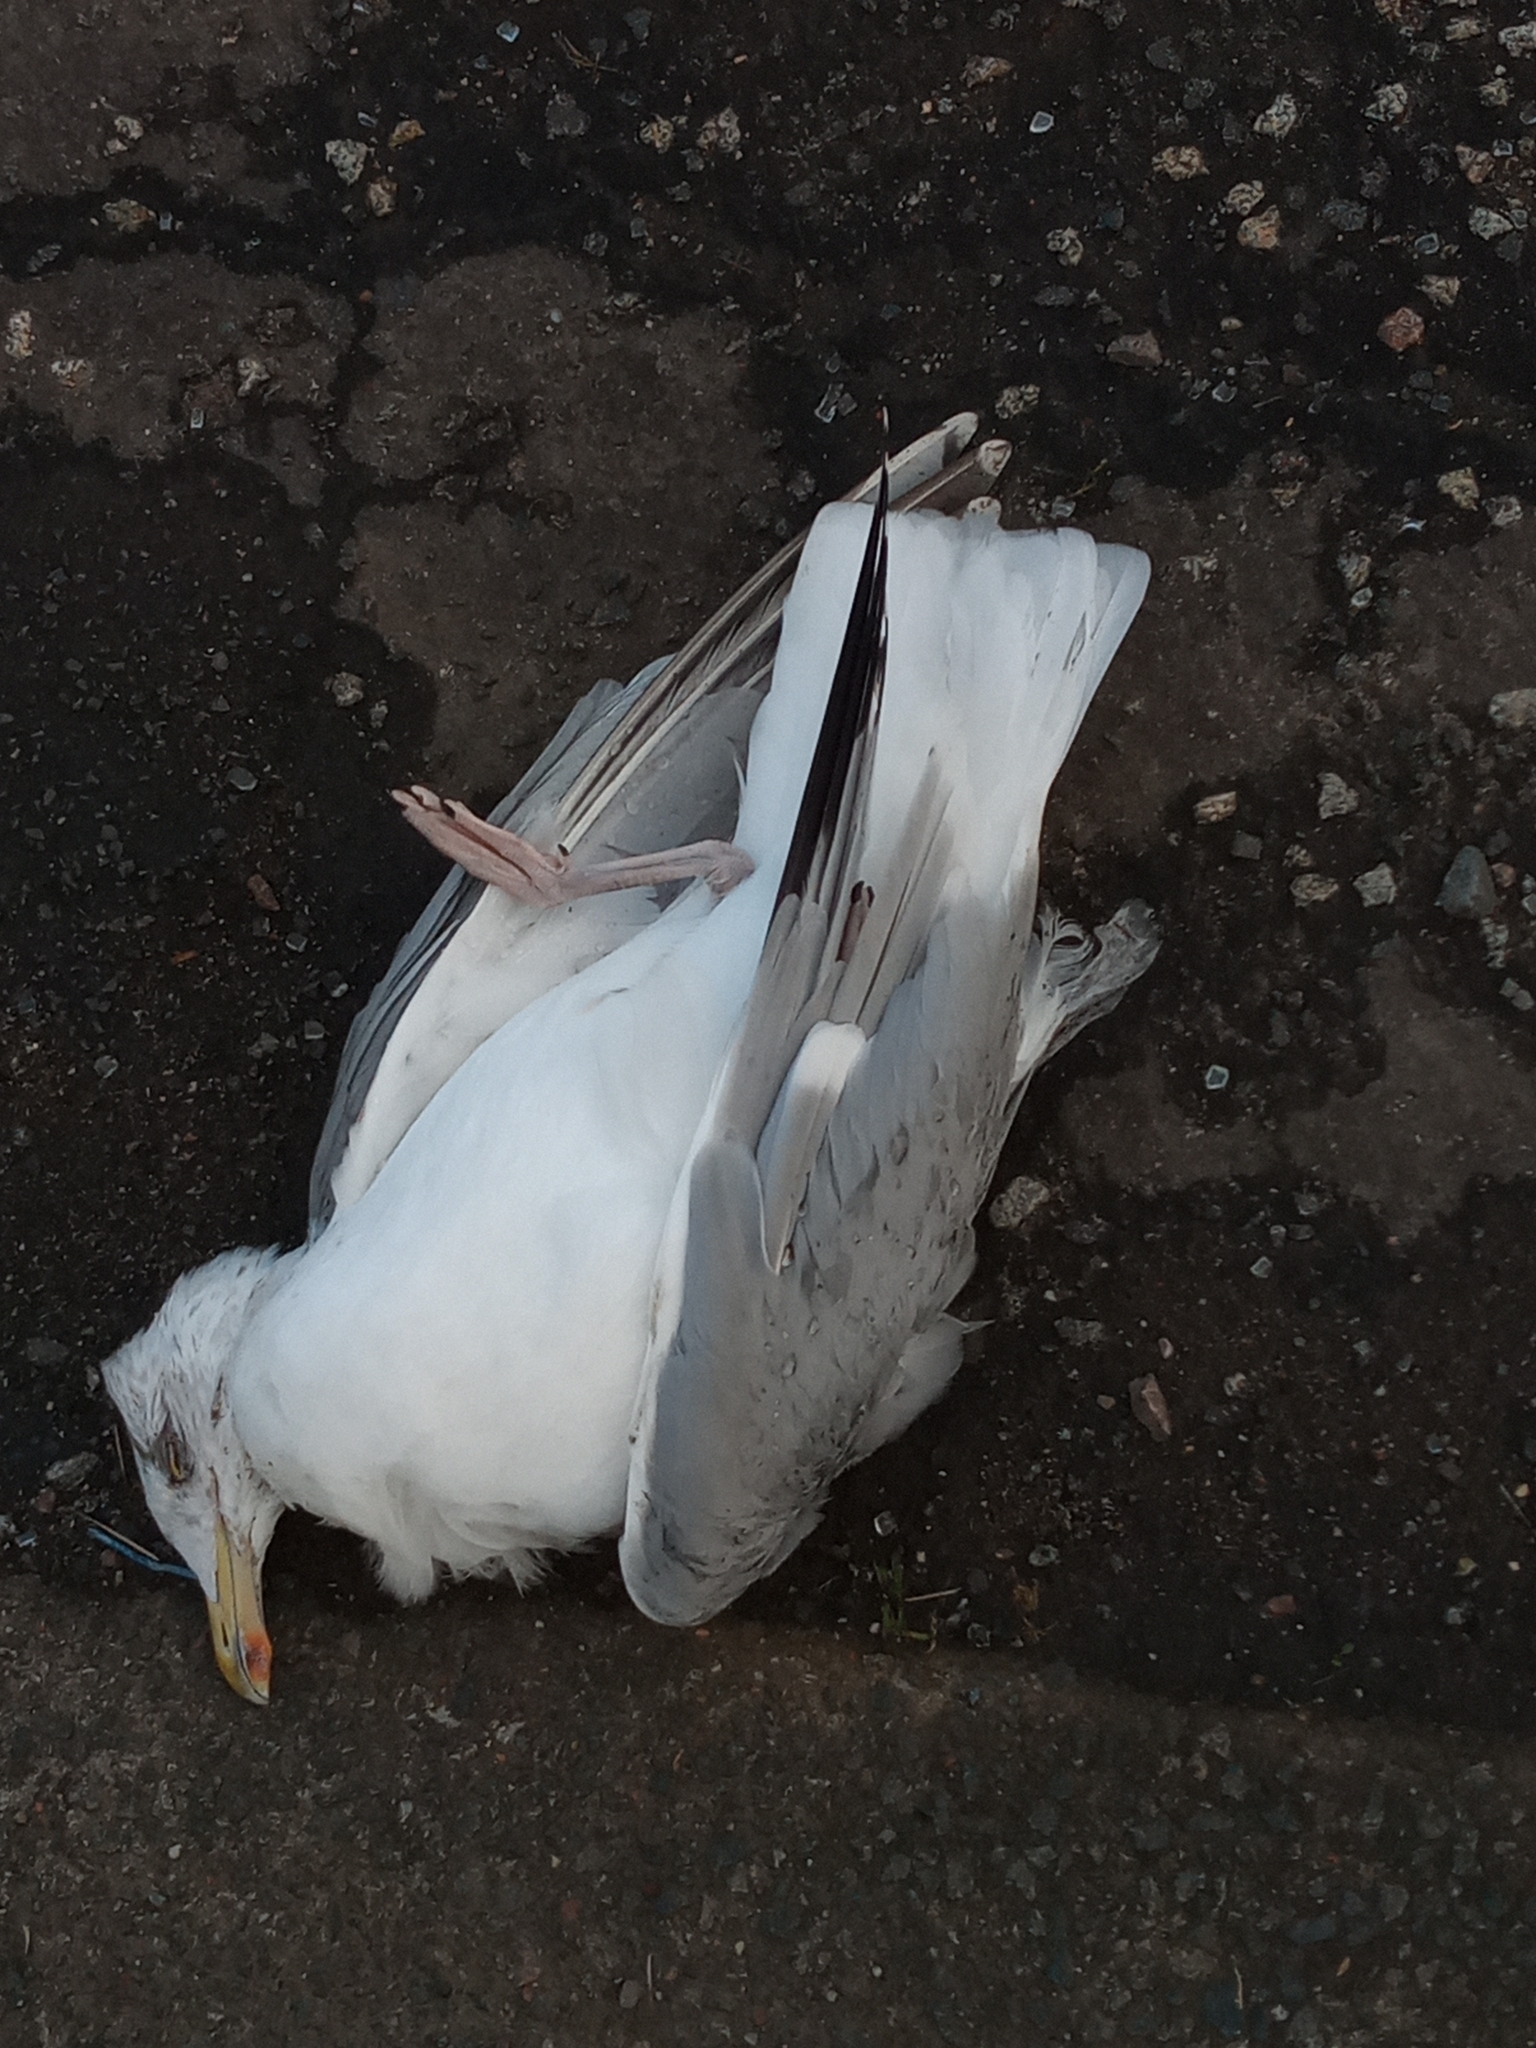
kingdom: Animalia
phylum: Chordata
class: Aves
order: Charadriiformes
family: Laridae
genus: Larus
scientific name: Larus argentatus
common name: Herring gull
